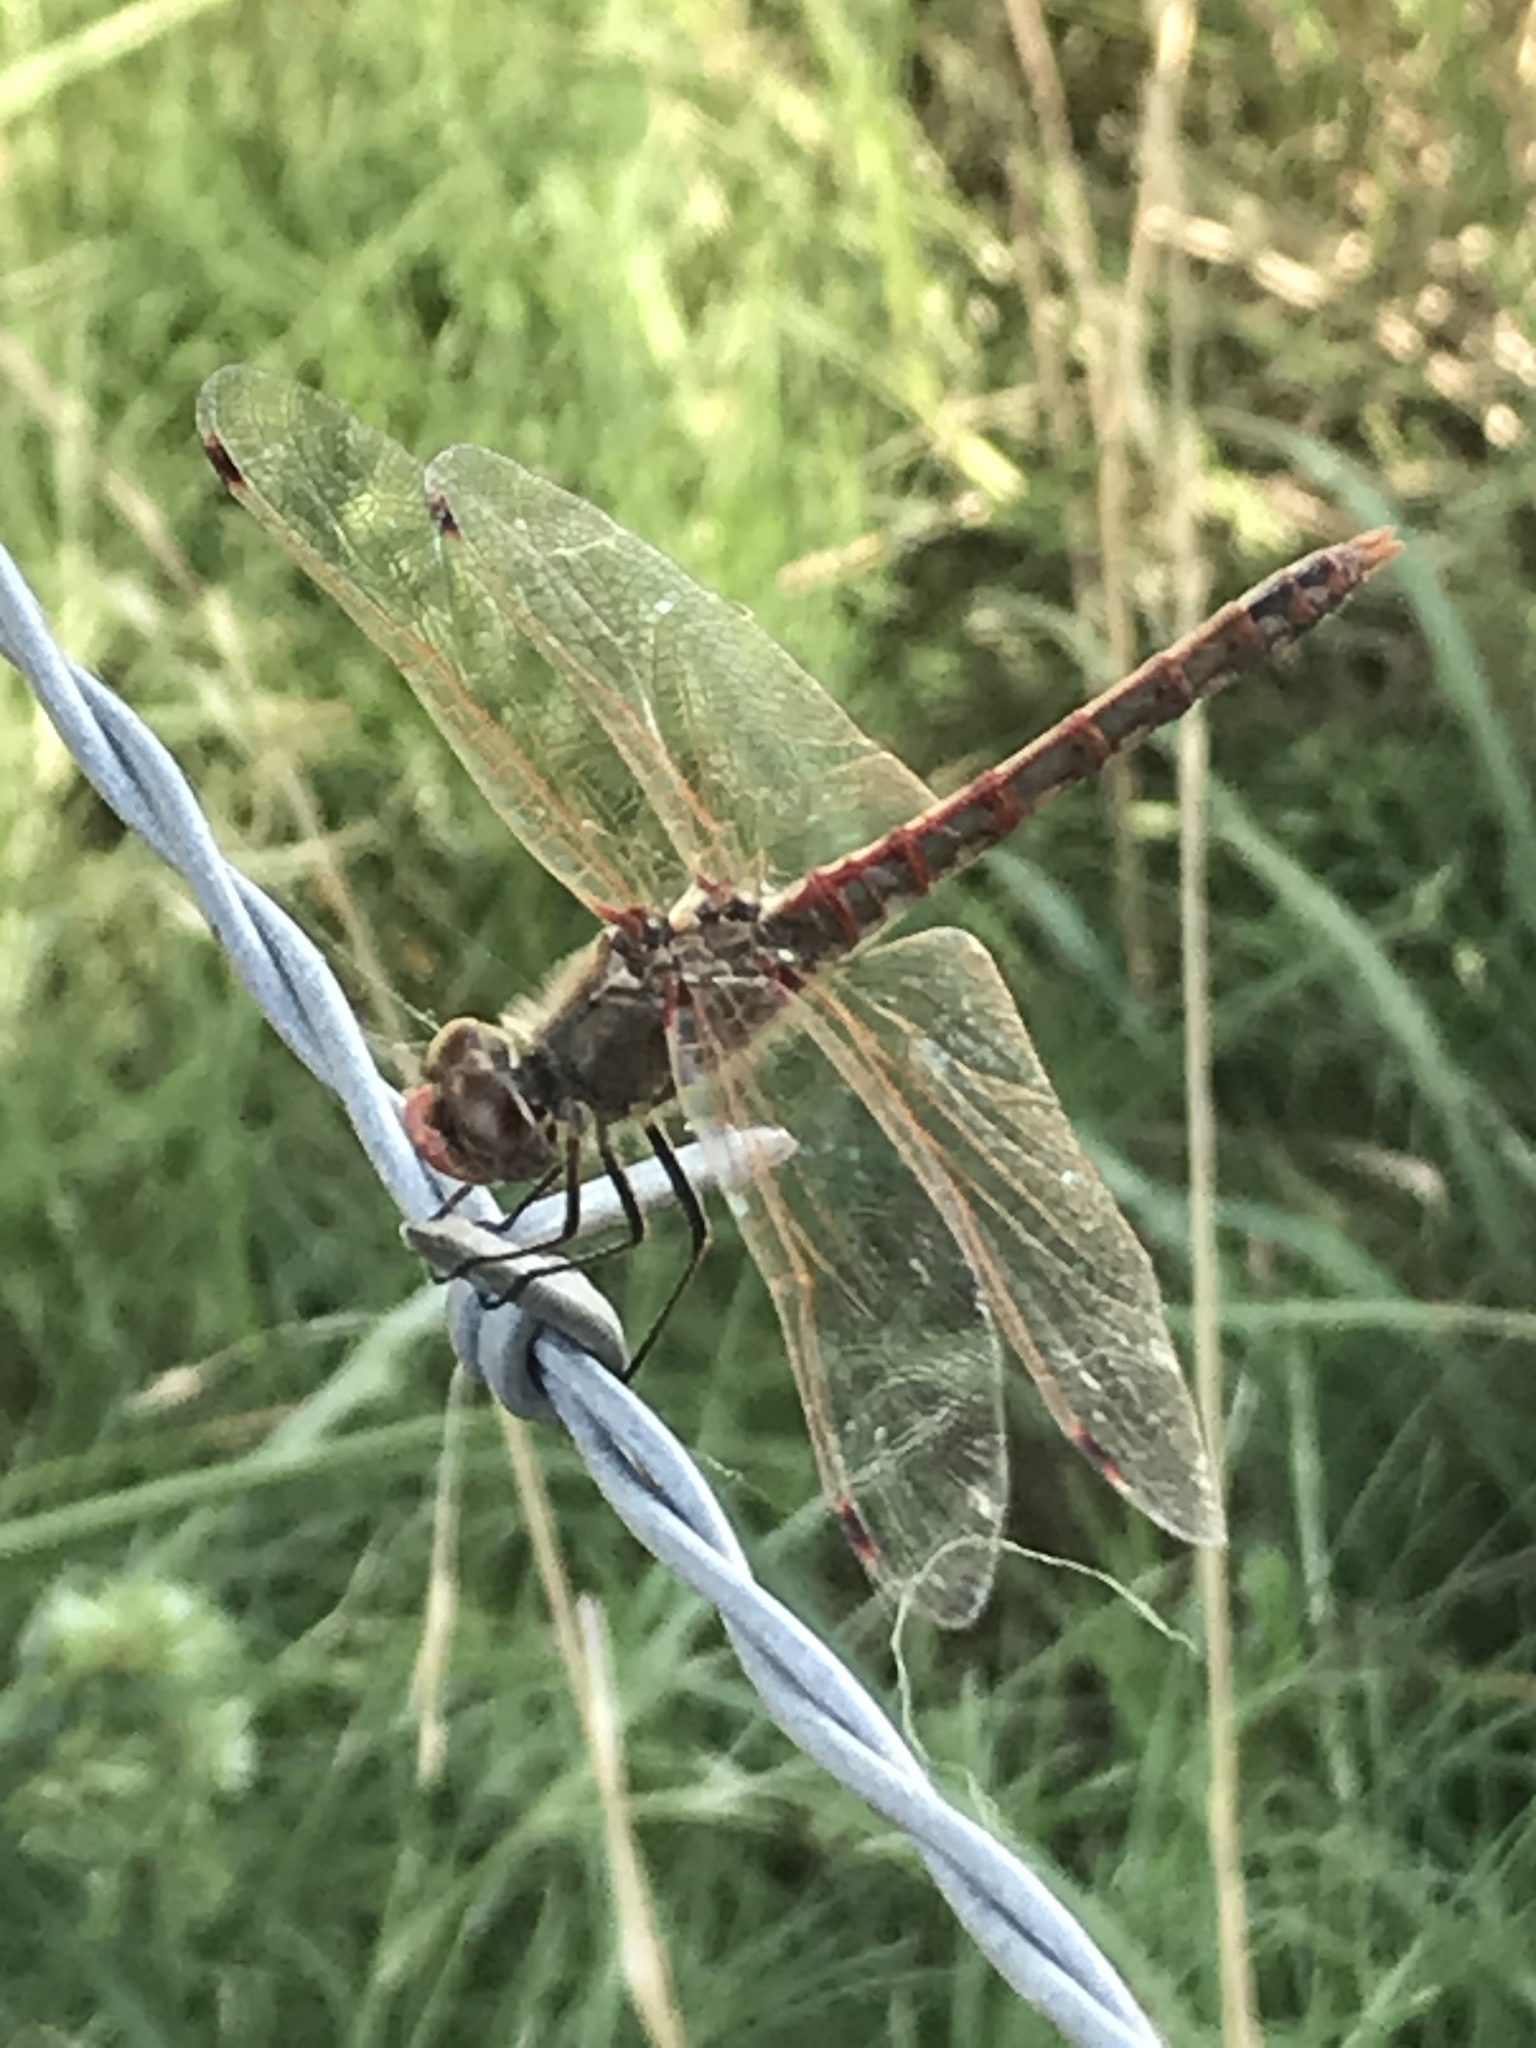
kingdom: Animalia
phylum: Arthropoda
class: Insecta
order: Odonata
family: Libellulidae
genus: Sympetrum
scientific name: Sympetrum corruptum
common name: Variegated meadowhawk
